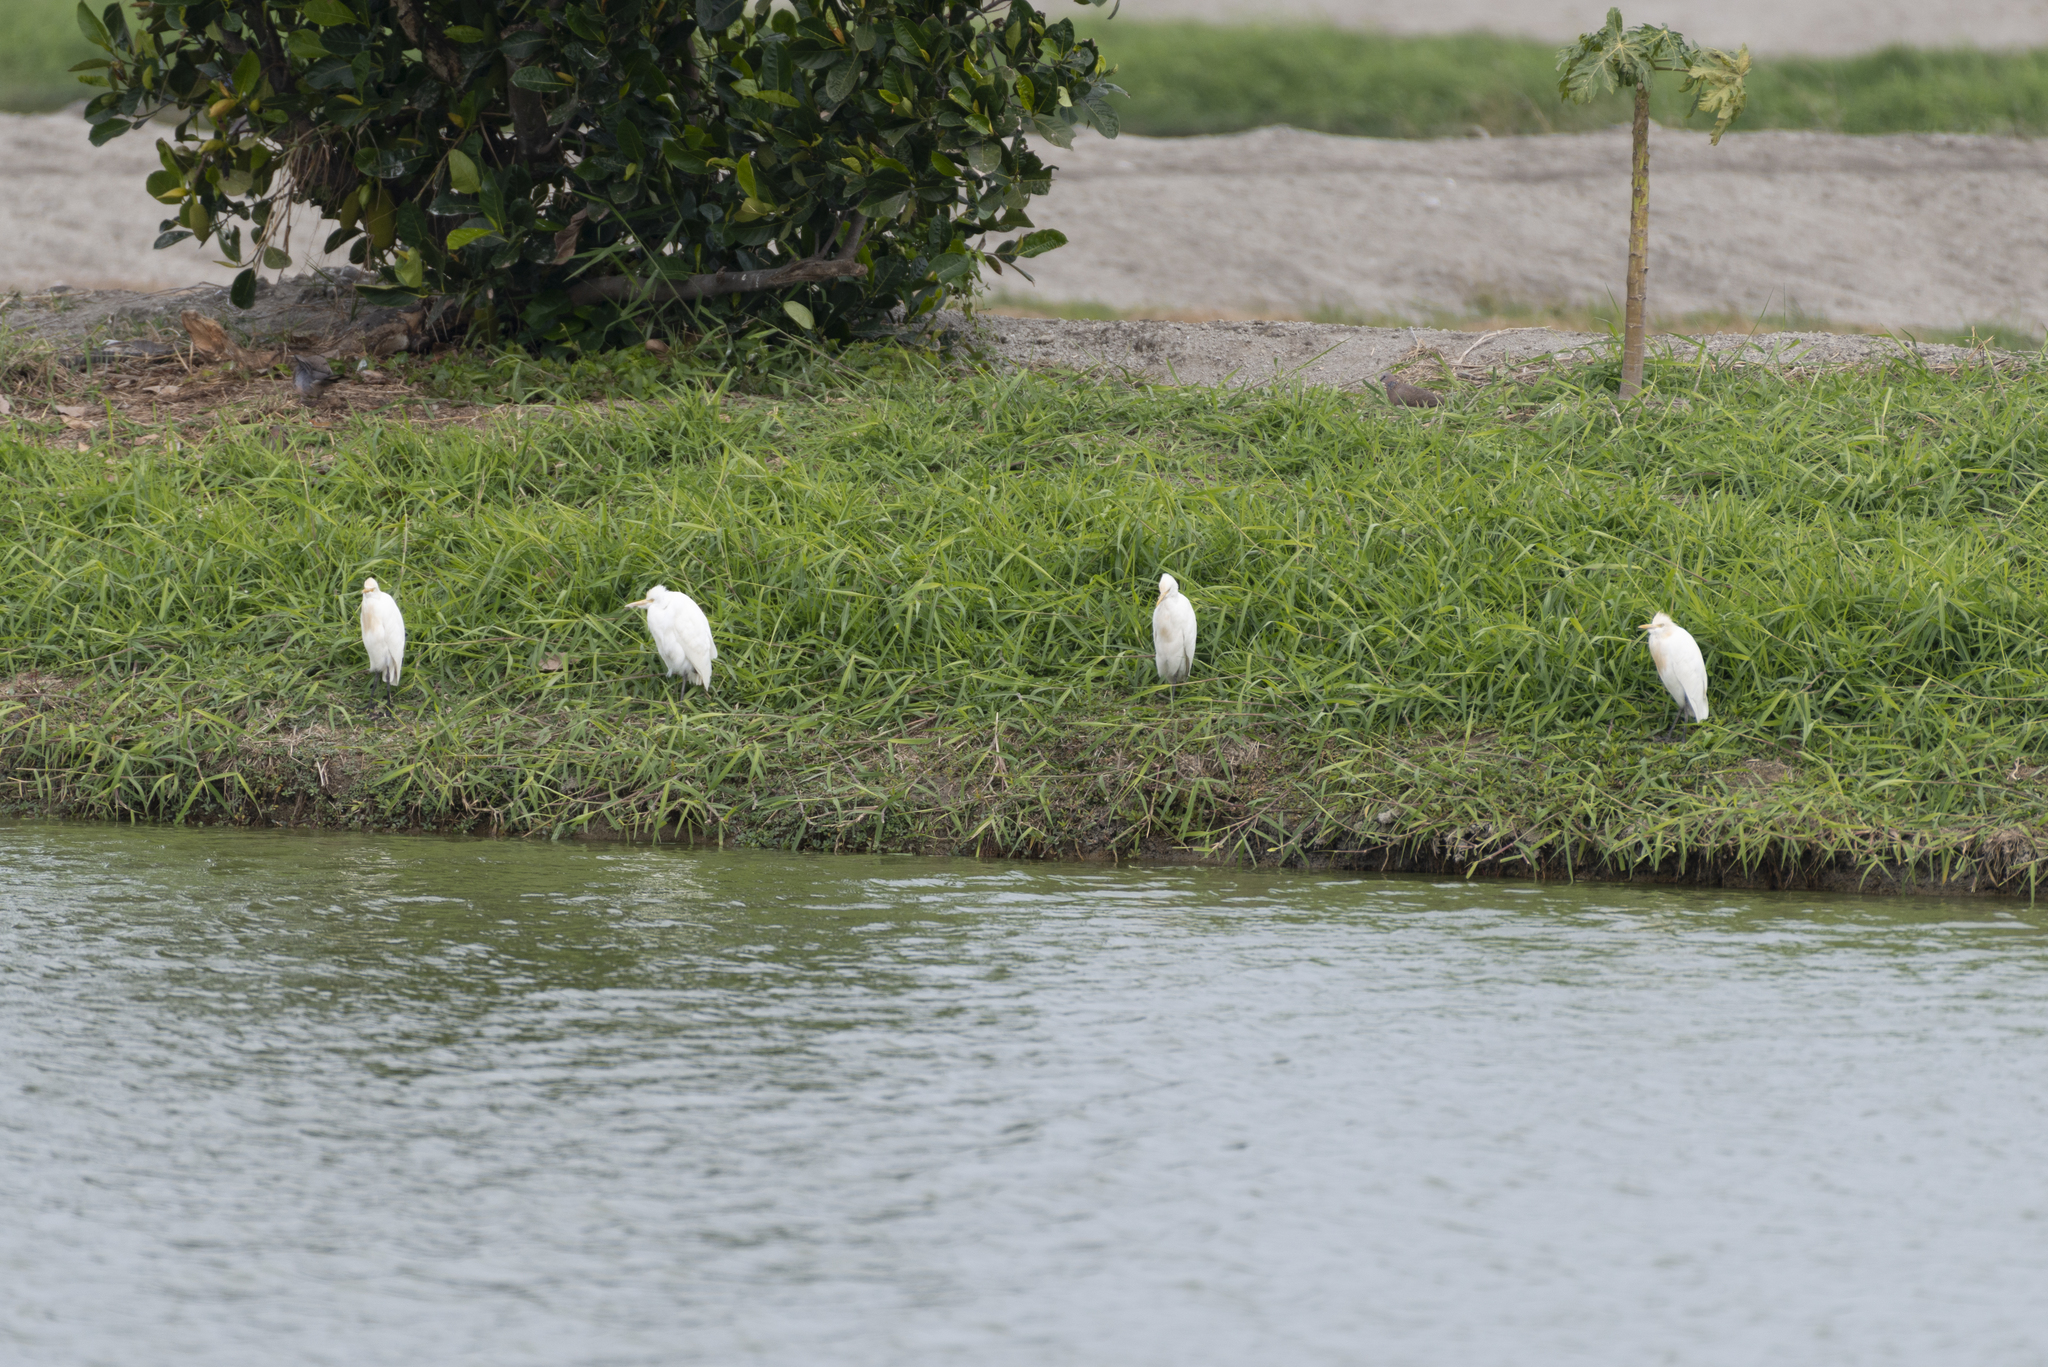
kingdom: Animalia
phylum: Chordata
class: Aves
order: Pelecaniformes
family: Ardeidae
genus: Bubulcus
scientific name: Bubulcus coromandus
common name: Eastern cattle egret
